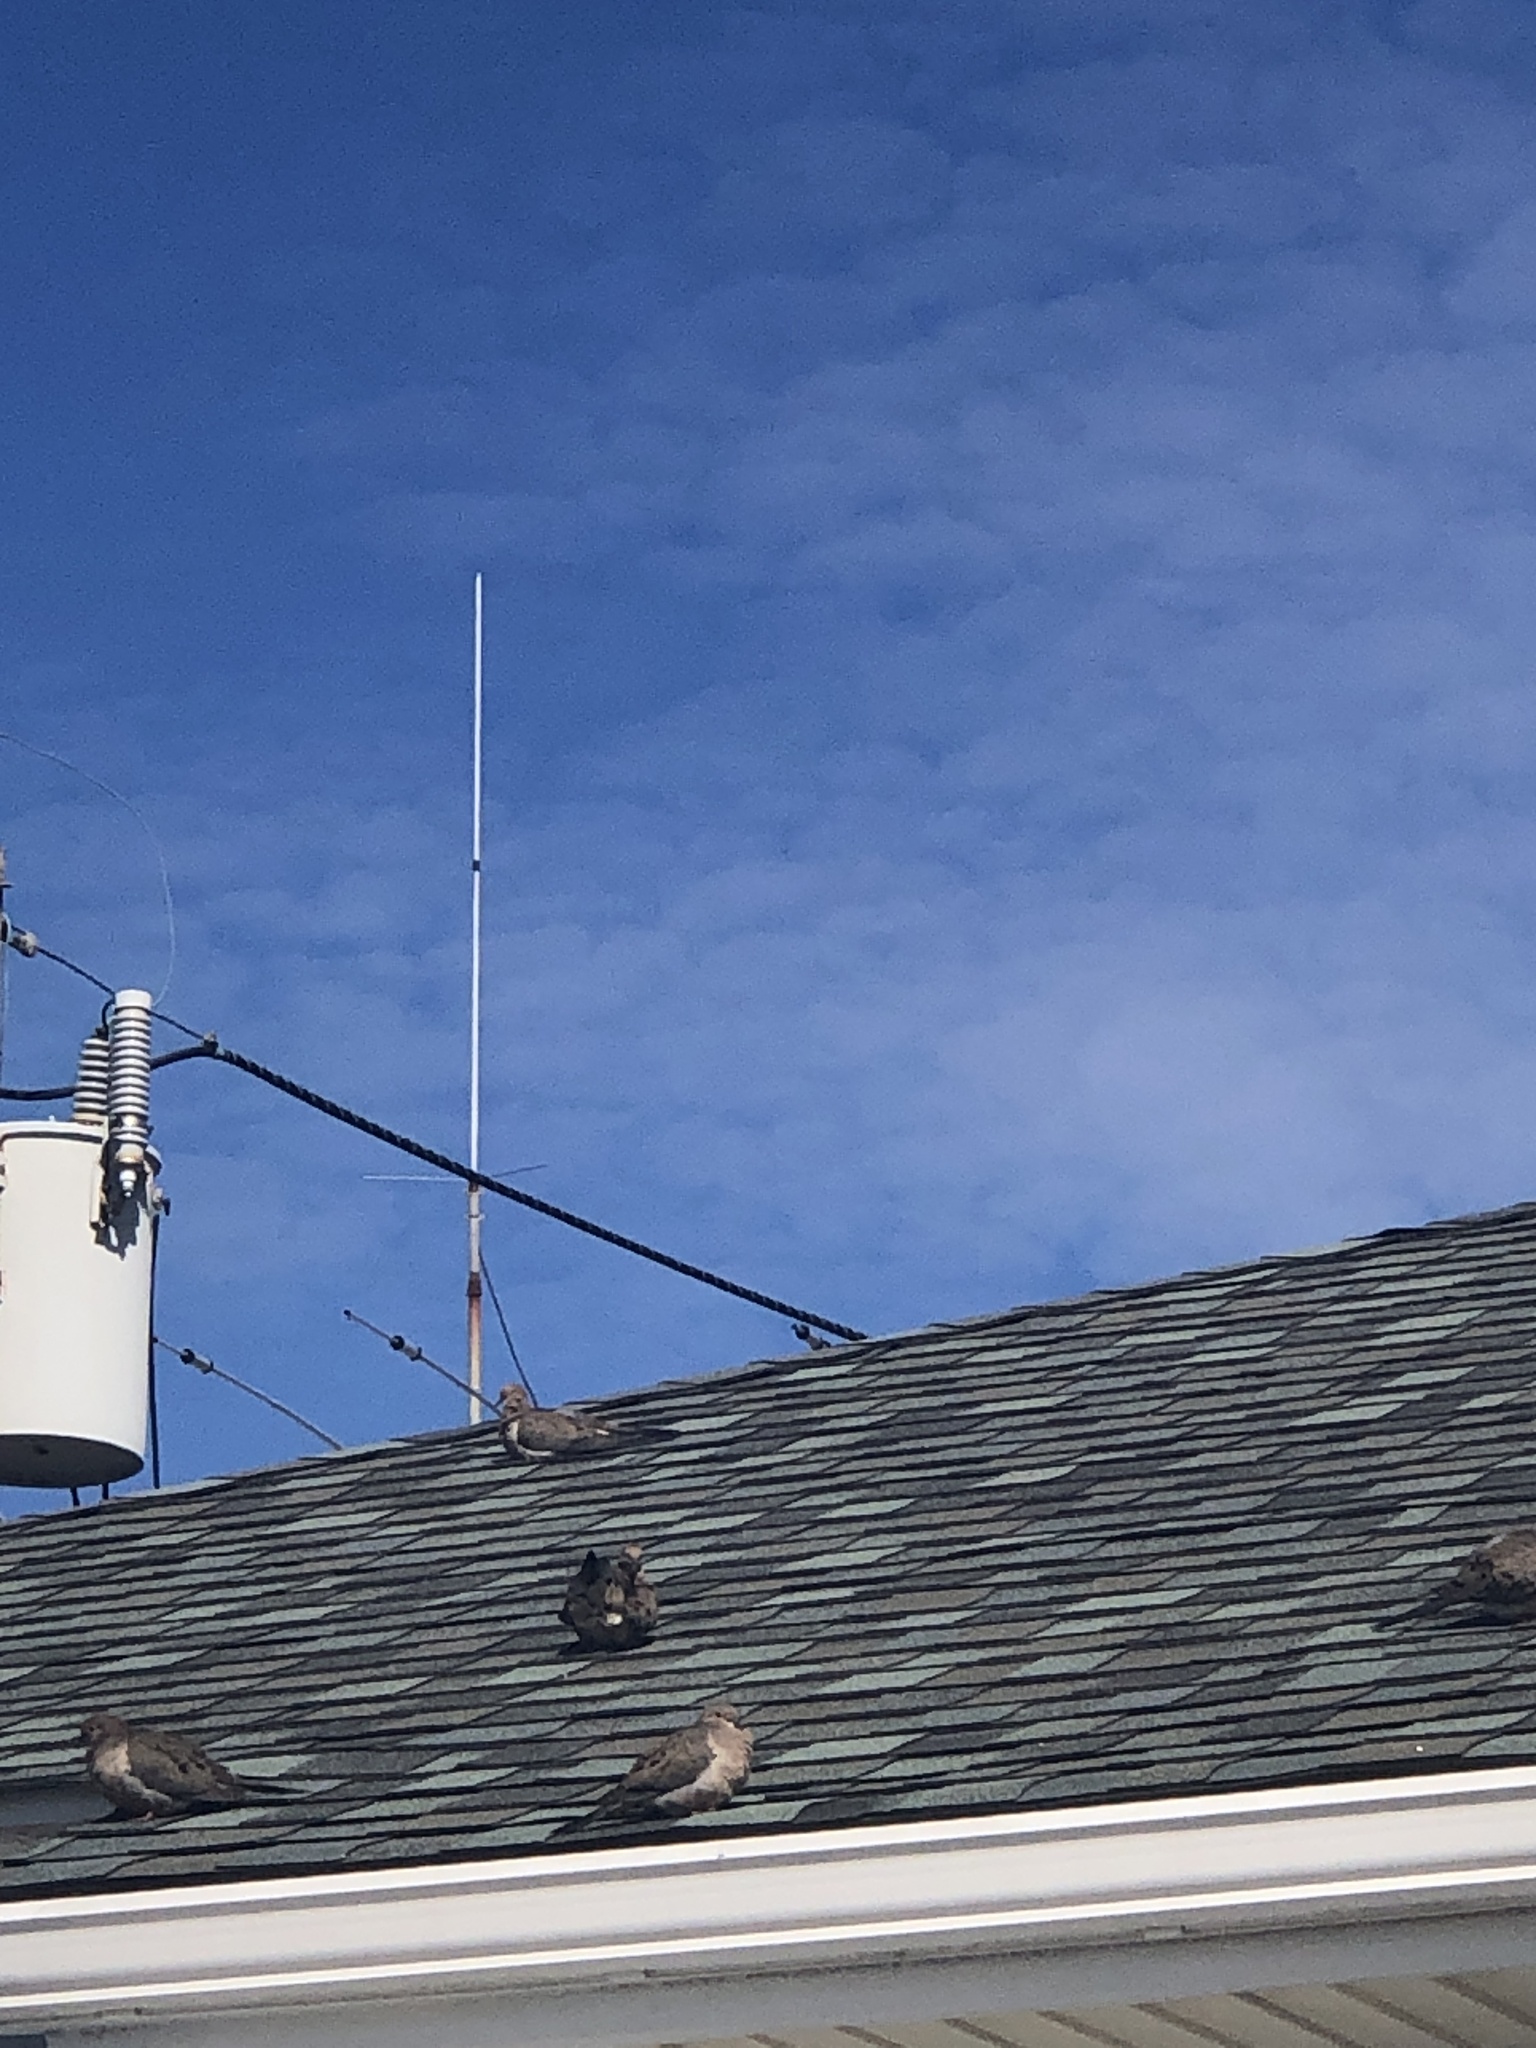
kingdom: Animalia
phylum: Chordata
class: Aves
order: Columbiformes
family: Columbidae
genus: Zenaida
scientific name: Zenaida macroura
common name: Mourning dove
